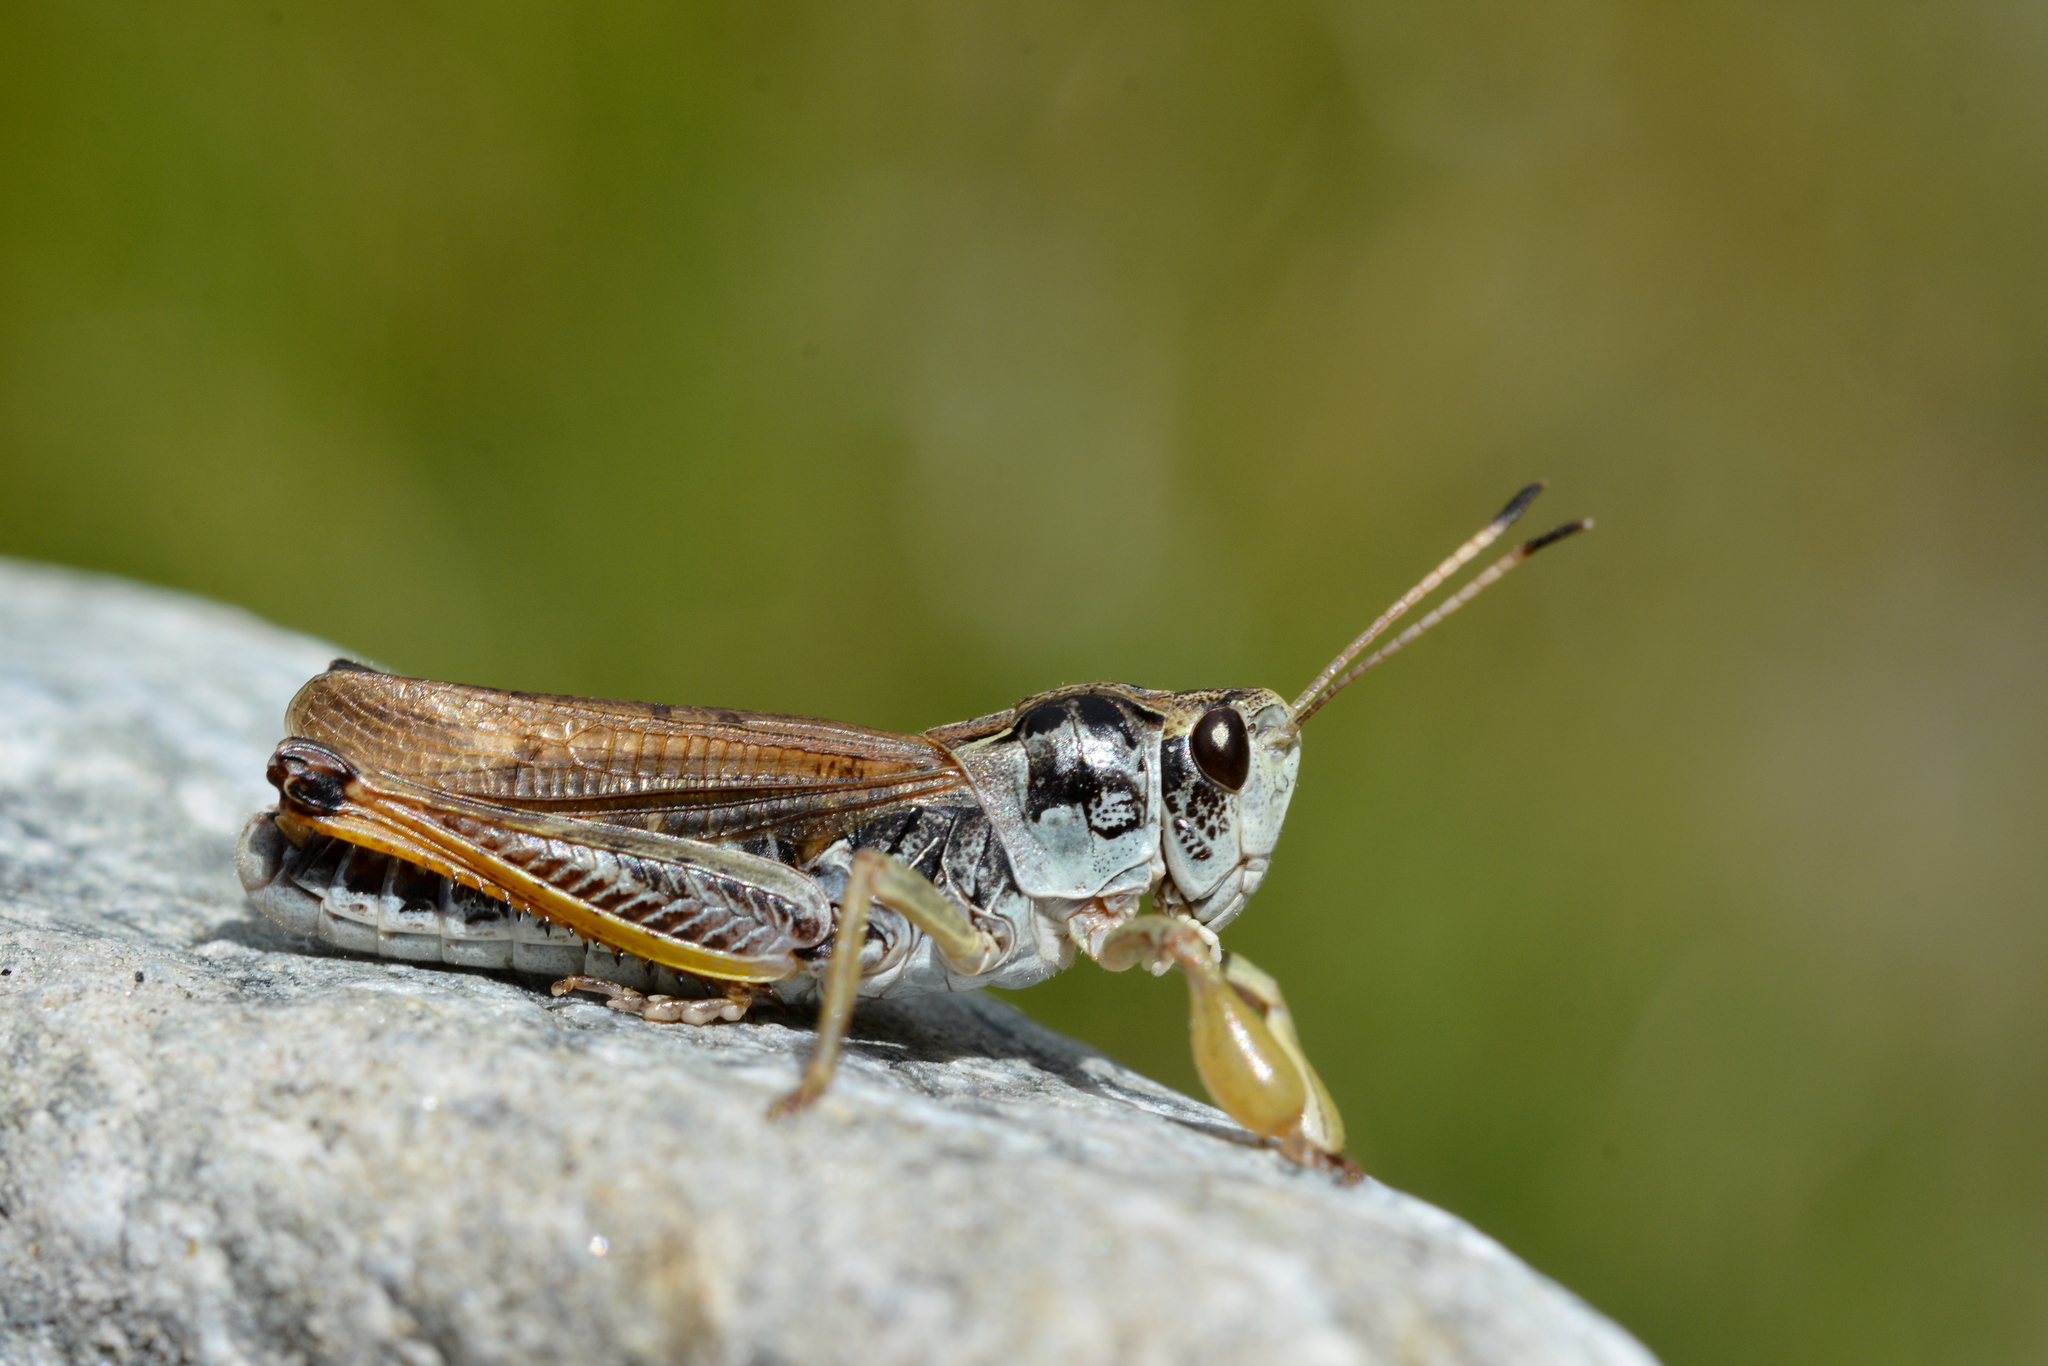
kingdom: Animalia
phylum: Arthropoda
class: Insecta
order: Orthoptera
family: Acrididae
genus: Gomphocerus
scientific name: Gomphocerus sibiricus
